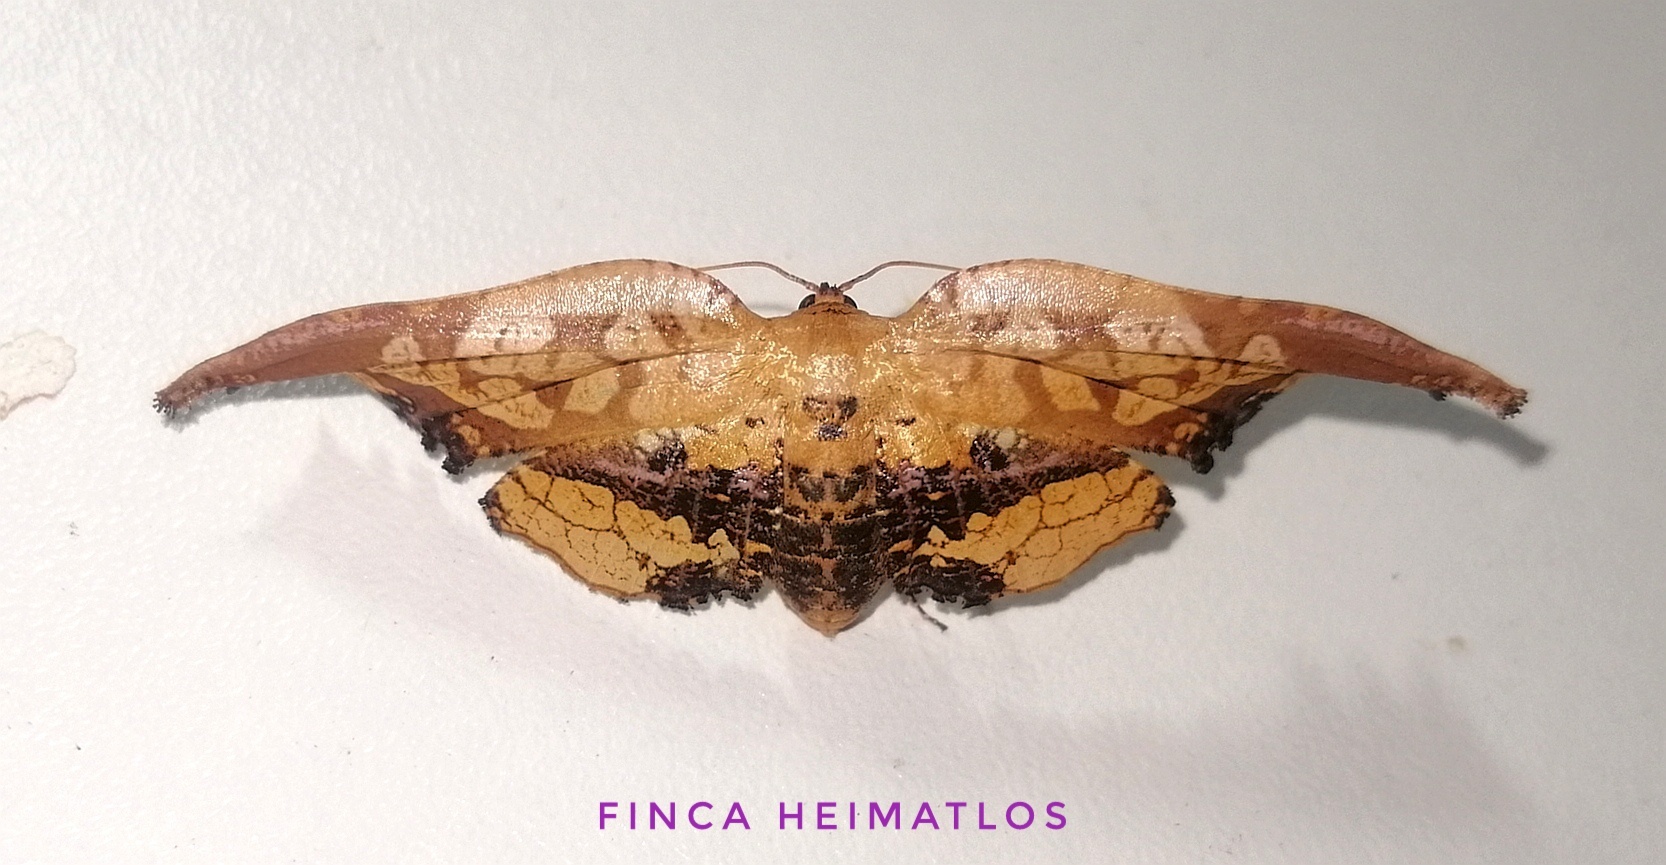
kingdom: Animalia
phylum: Arthropoda
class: Insecta
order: Lepidoptera
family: Thyrididae
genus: Draconia
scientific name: Draconia stenoptila
